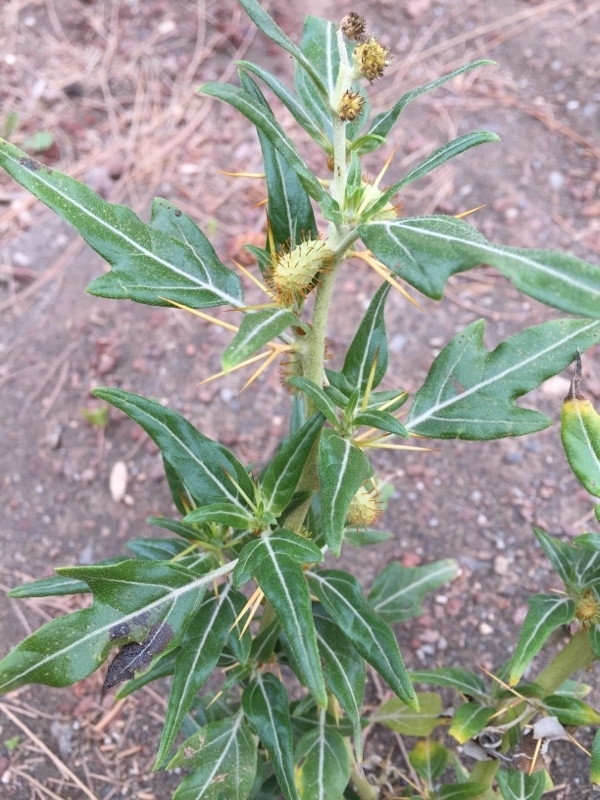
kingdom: Plantae
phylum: Tracheophyta
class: Magnoliopsida
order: Asterales
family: Asteraceae
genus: Xanthium
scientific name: Xanthium spinosum
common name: Spiny cocklebur
